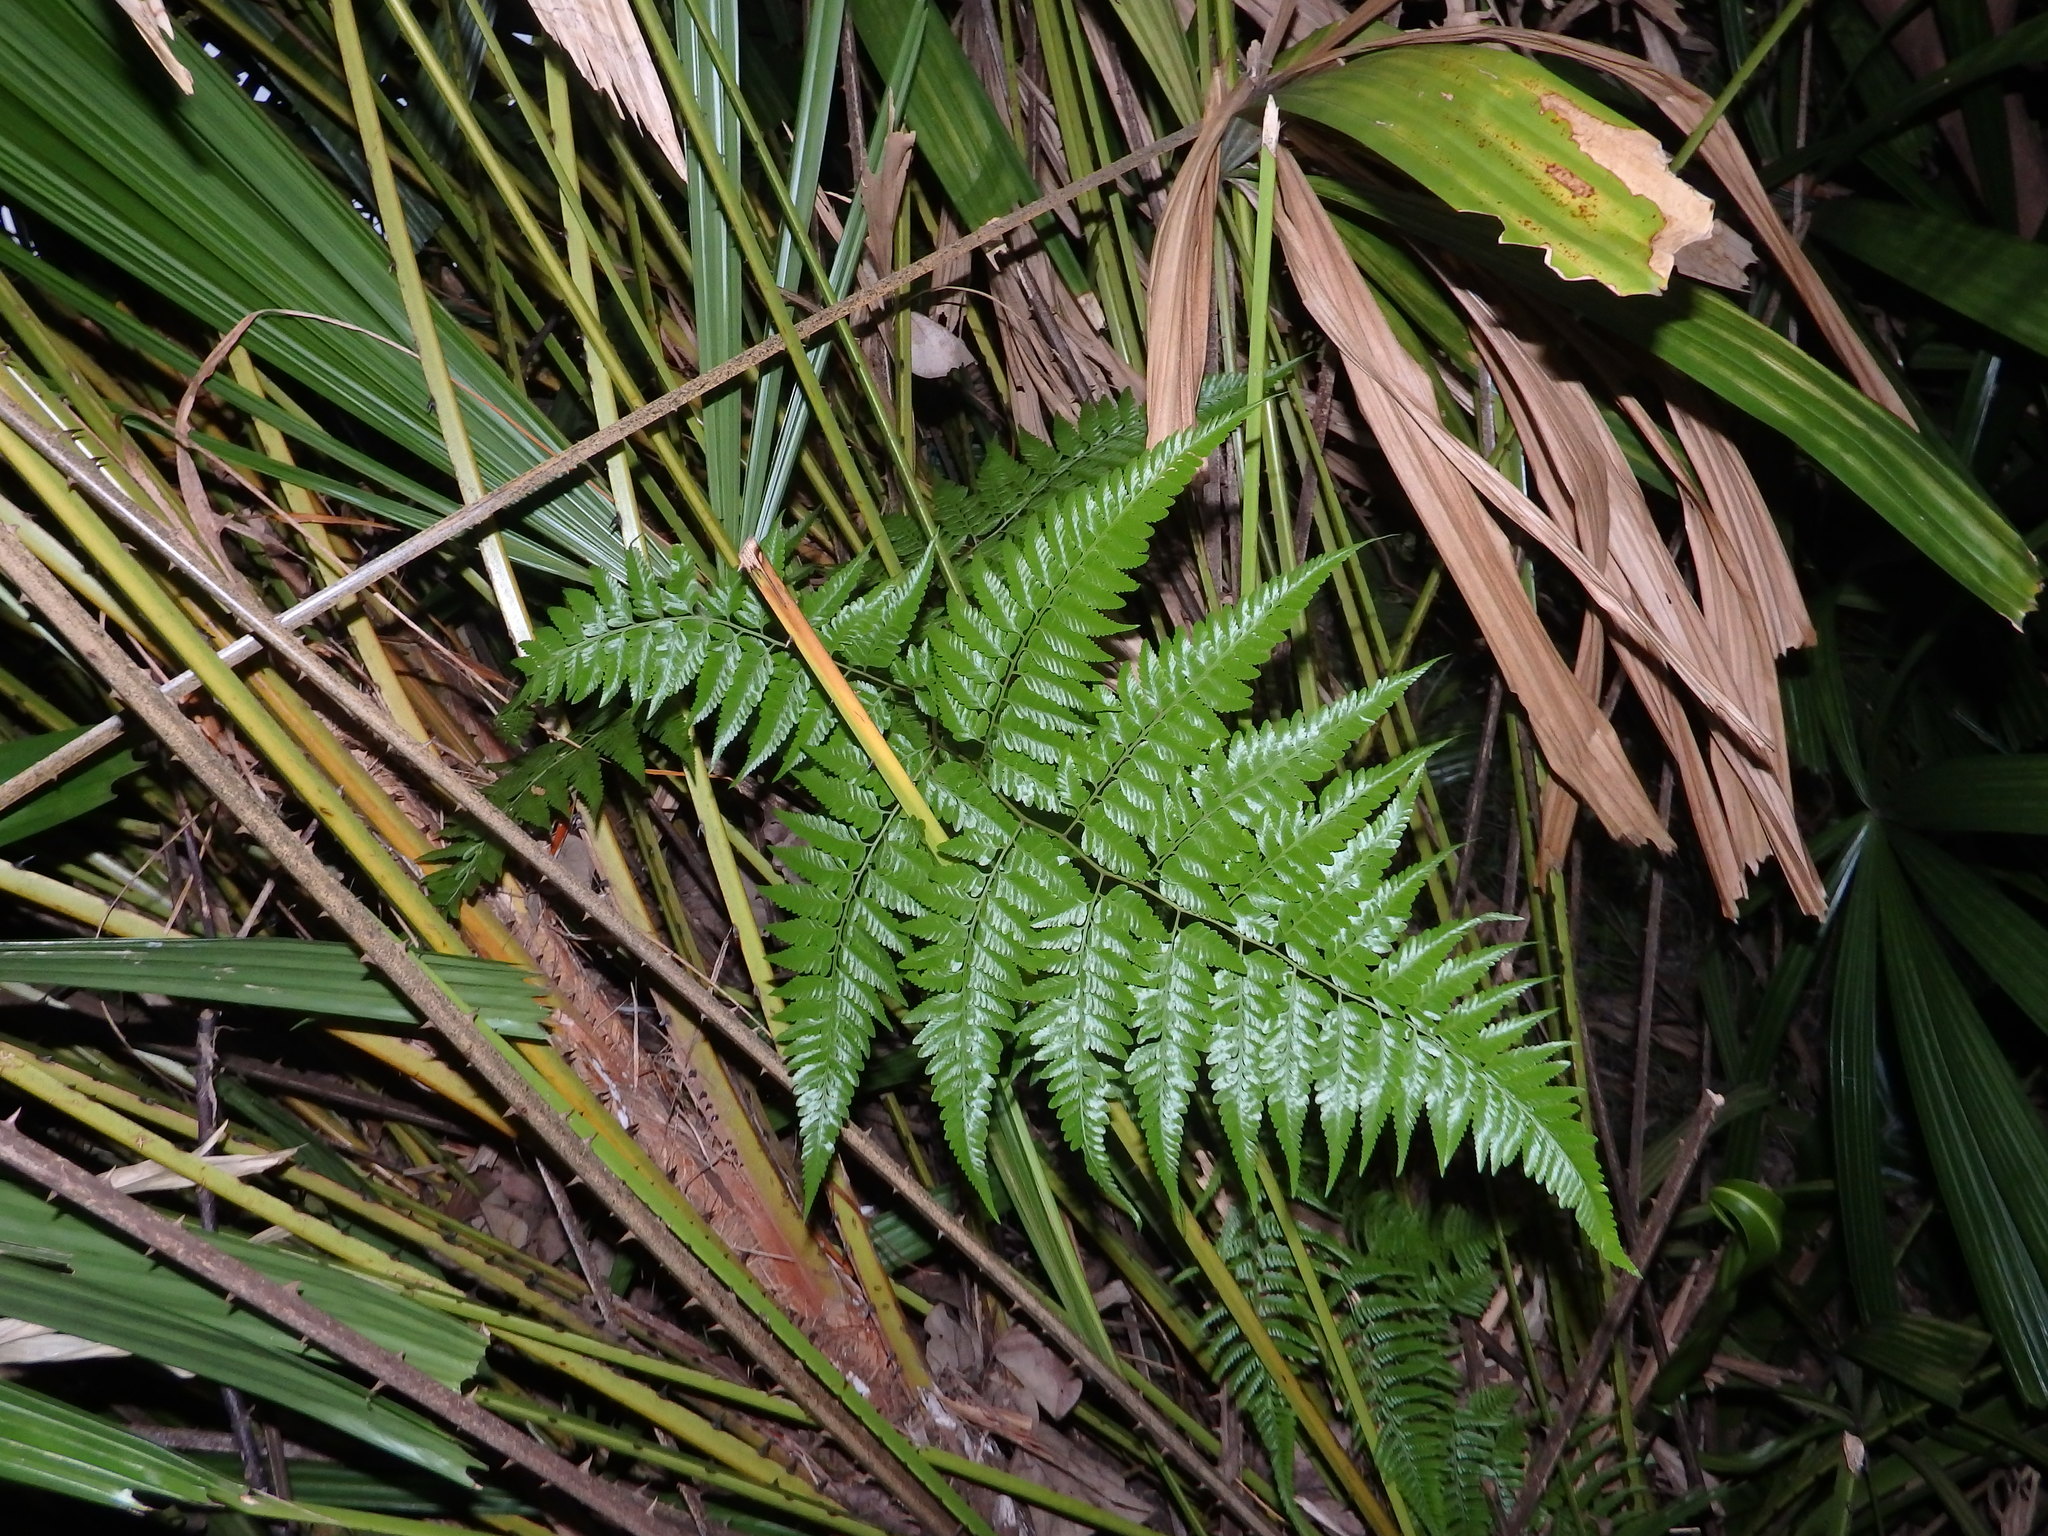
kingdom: Plantae
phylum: Tracheophyta
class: Polypodiopsida
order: Polypodiales
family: Davalliaceae
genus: Davallia
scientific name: Davallia denticulata
